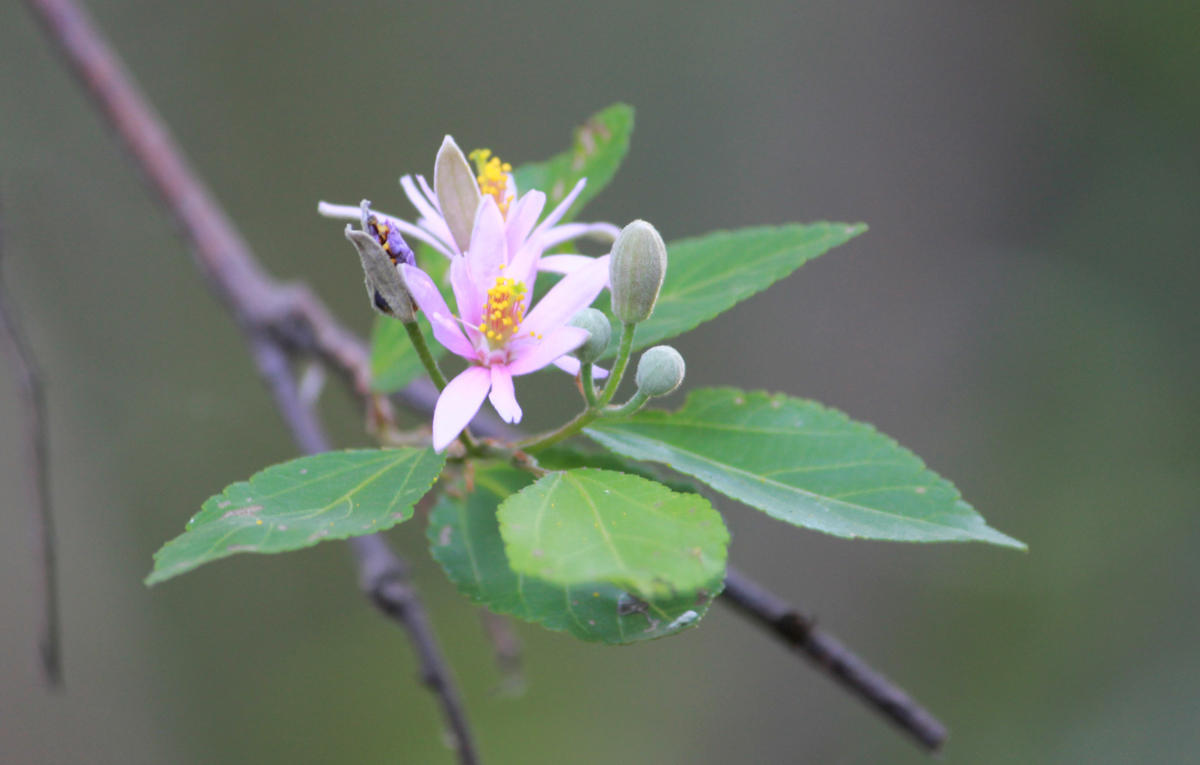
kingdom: Plantae
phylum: Tracheophyta
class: Magnoliopsida
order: Malvales
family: Malvaceae
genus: Grewia
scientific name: Grewia occidentalis
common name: Crossberry
